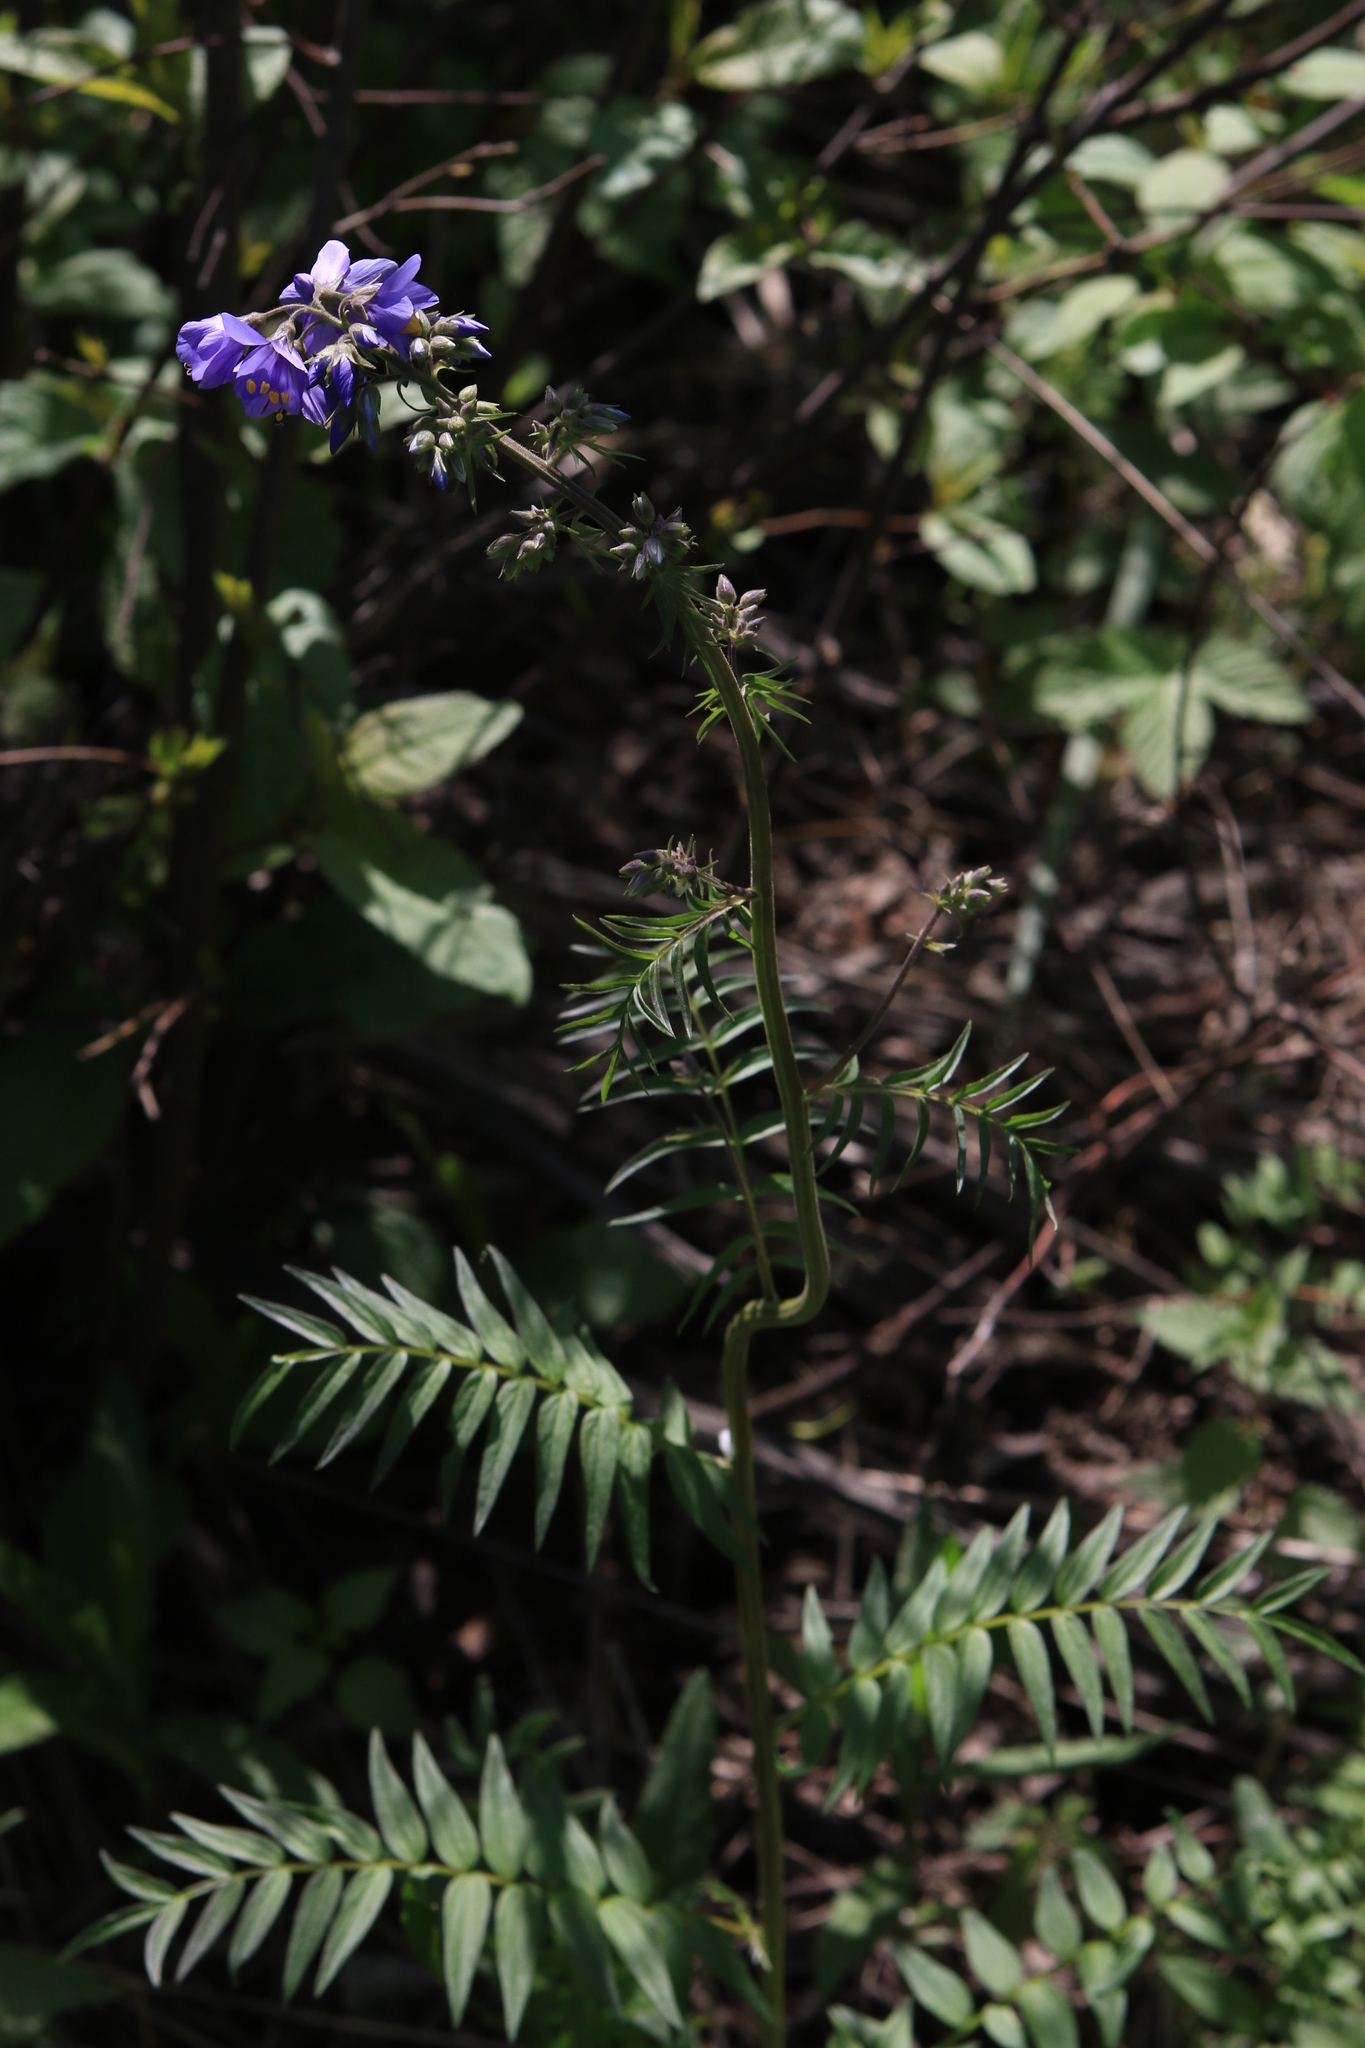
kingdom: Plantae
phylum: Tracheophyta
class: Magnoliopsida
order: Ericales
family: Polemoniaceae
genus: Polemonium
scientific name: Polemonium caeruleum
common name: Jacob's-ladder
